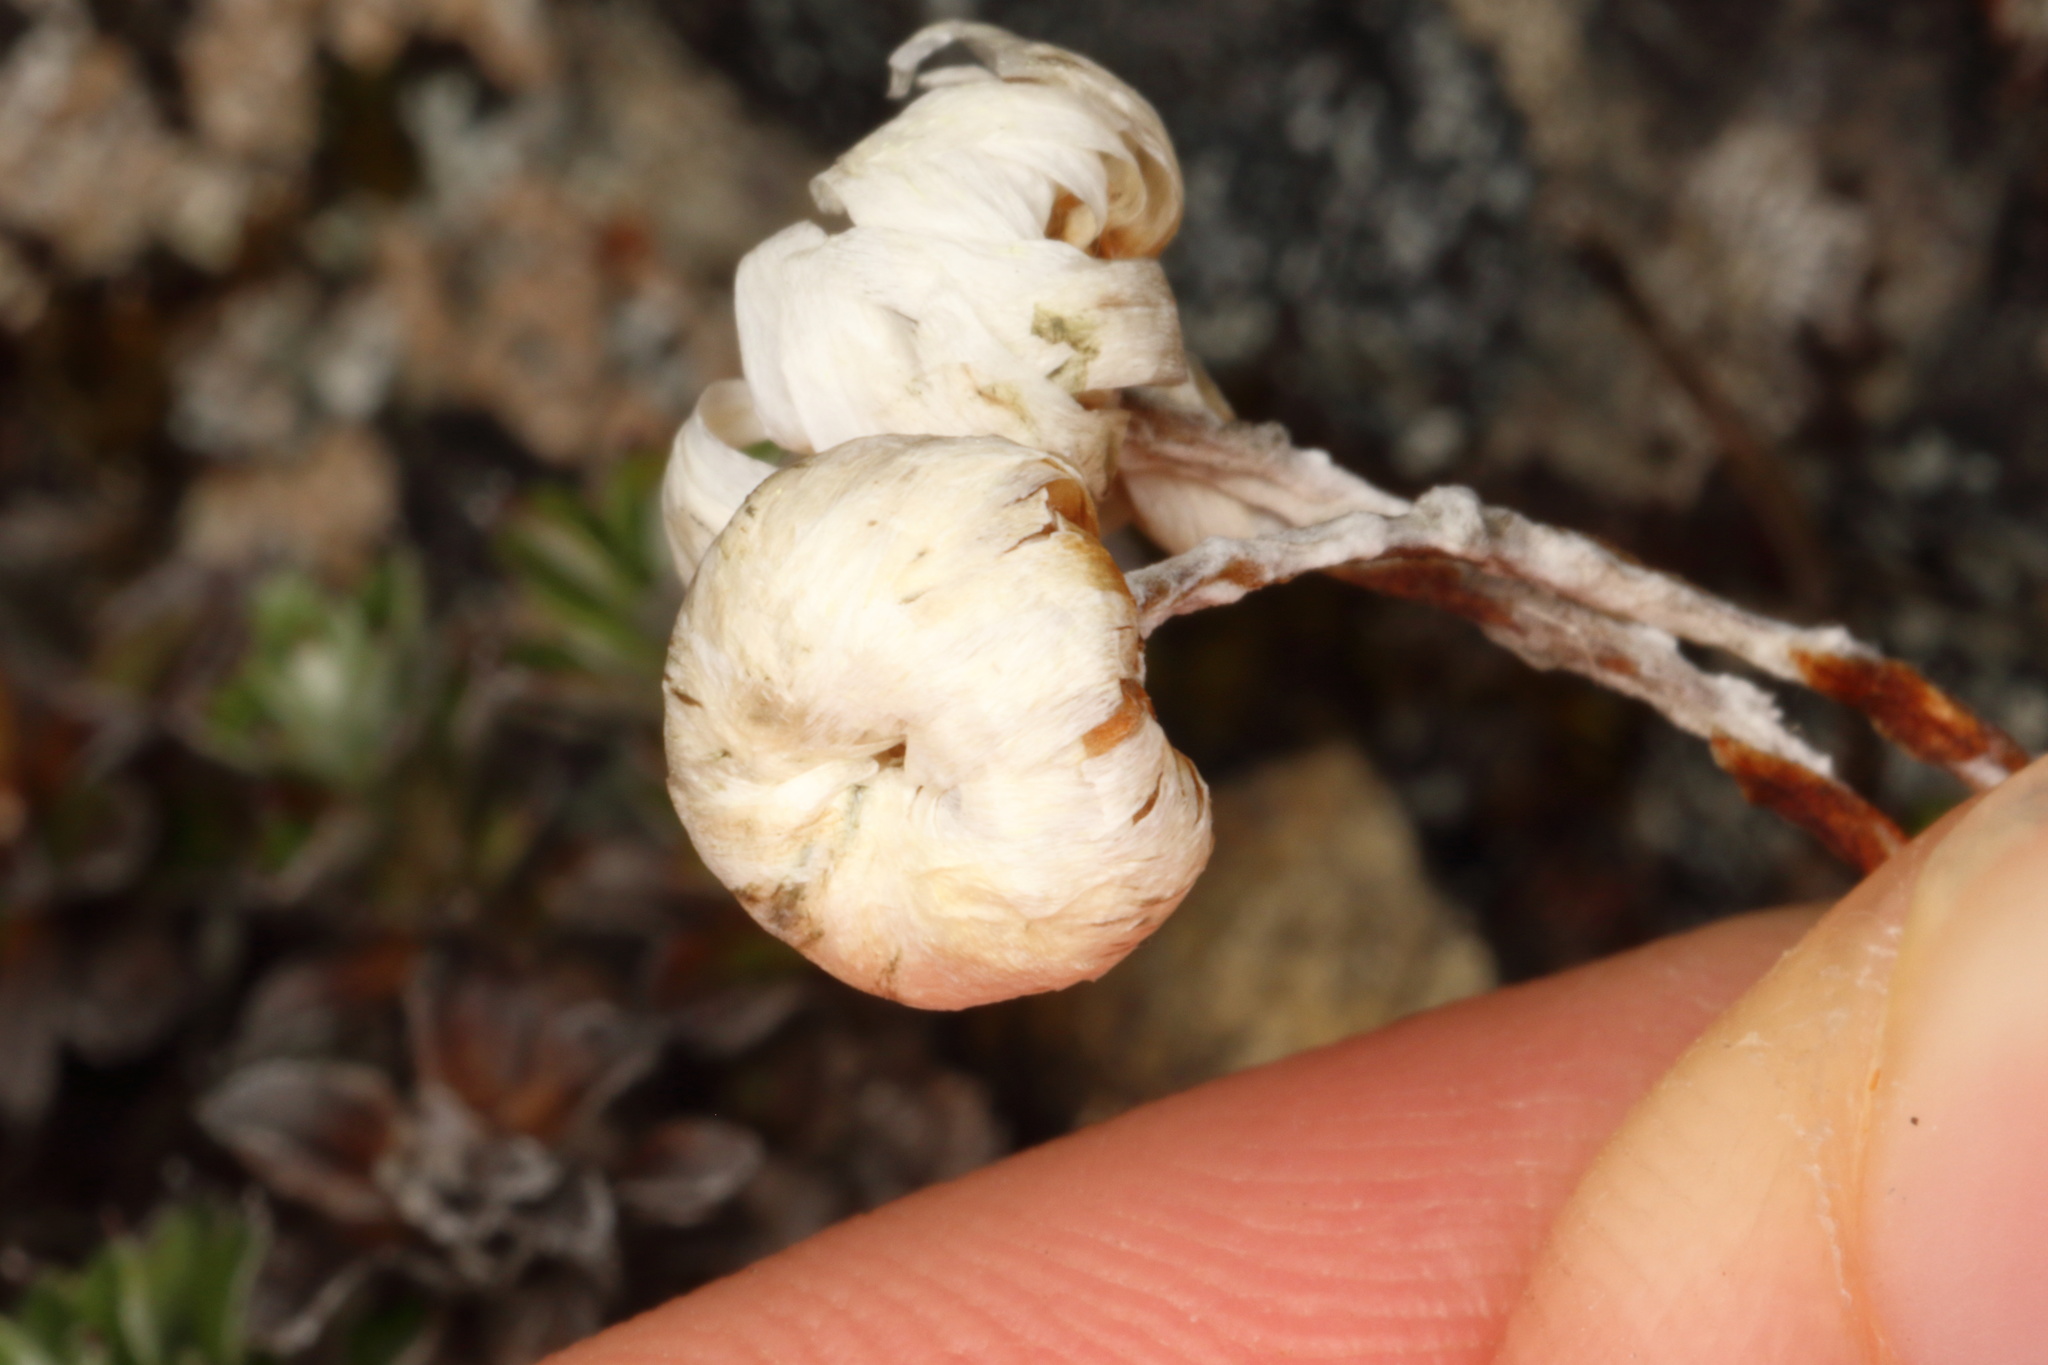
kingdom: Plantae
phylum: Tracheophyta
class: Magnoliopsida
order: Asterales
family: Asteraceae
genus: Anaphalioides
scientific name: Anaphalioides bellidioides
